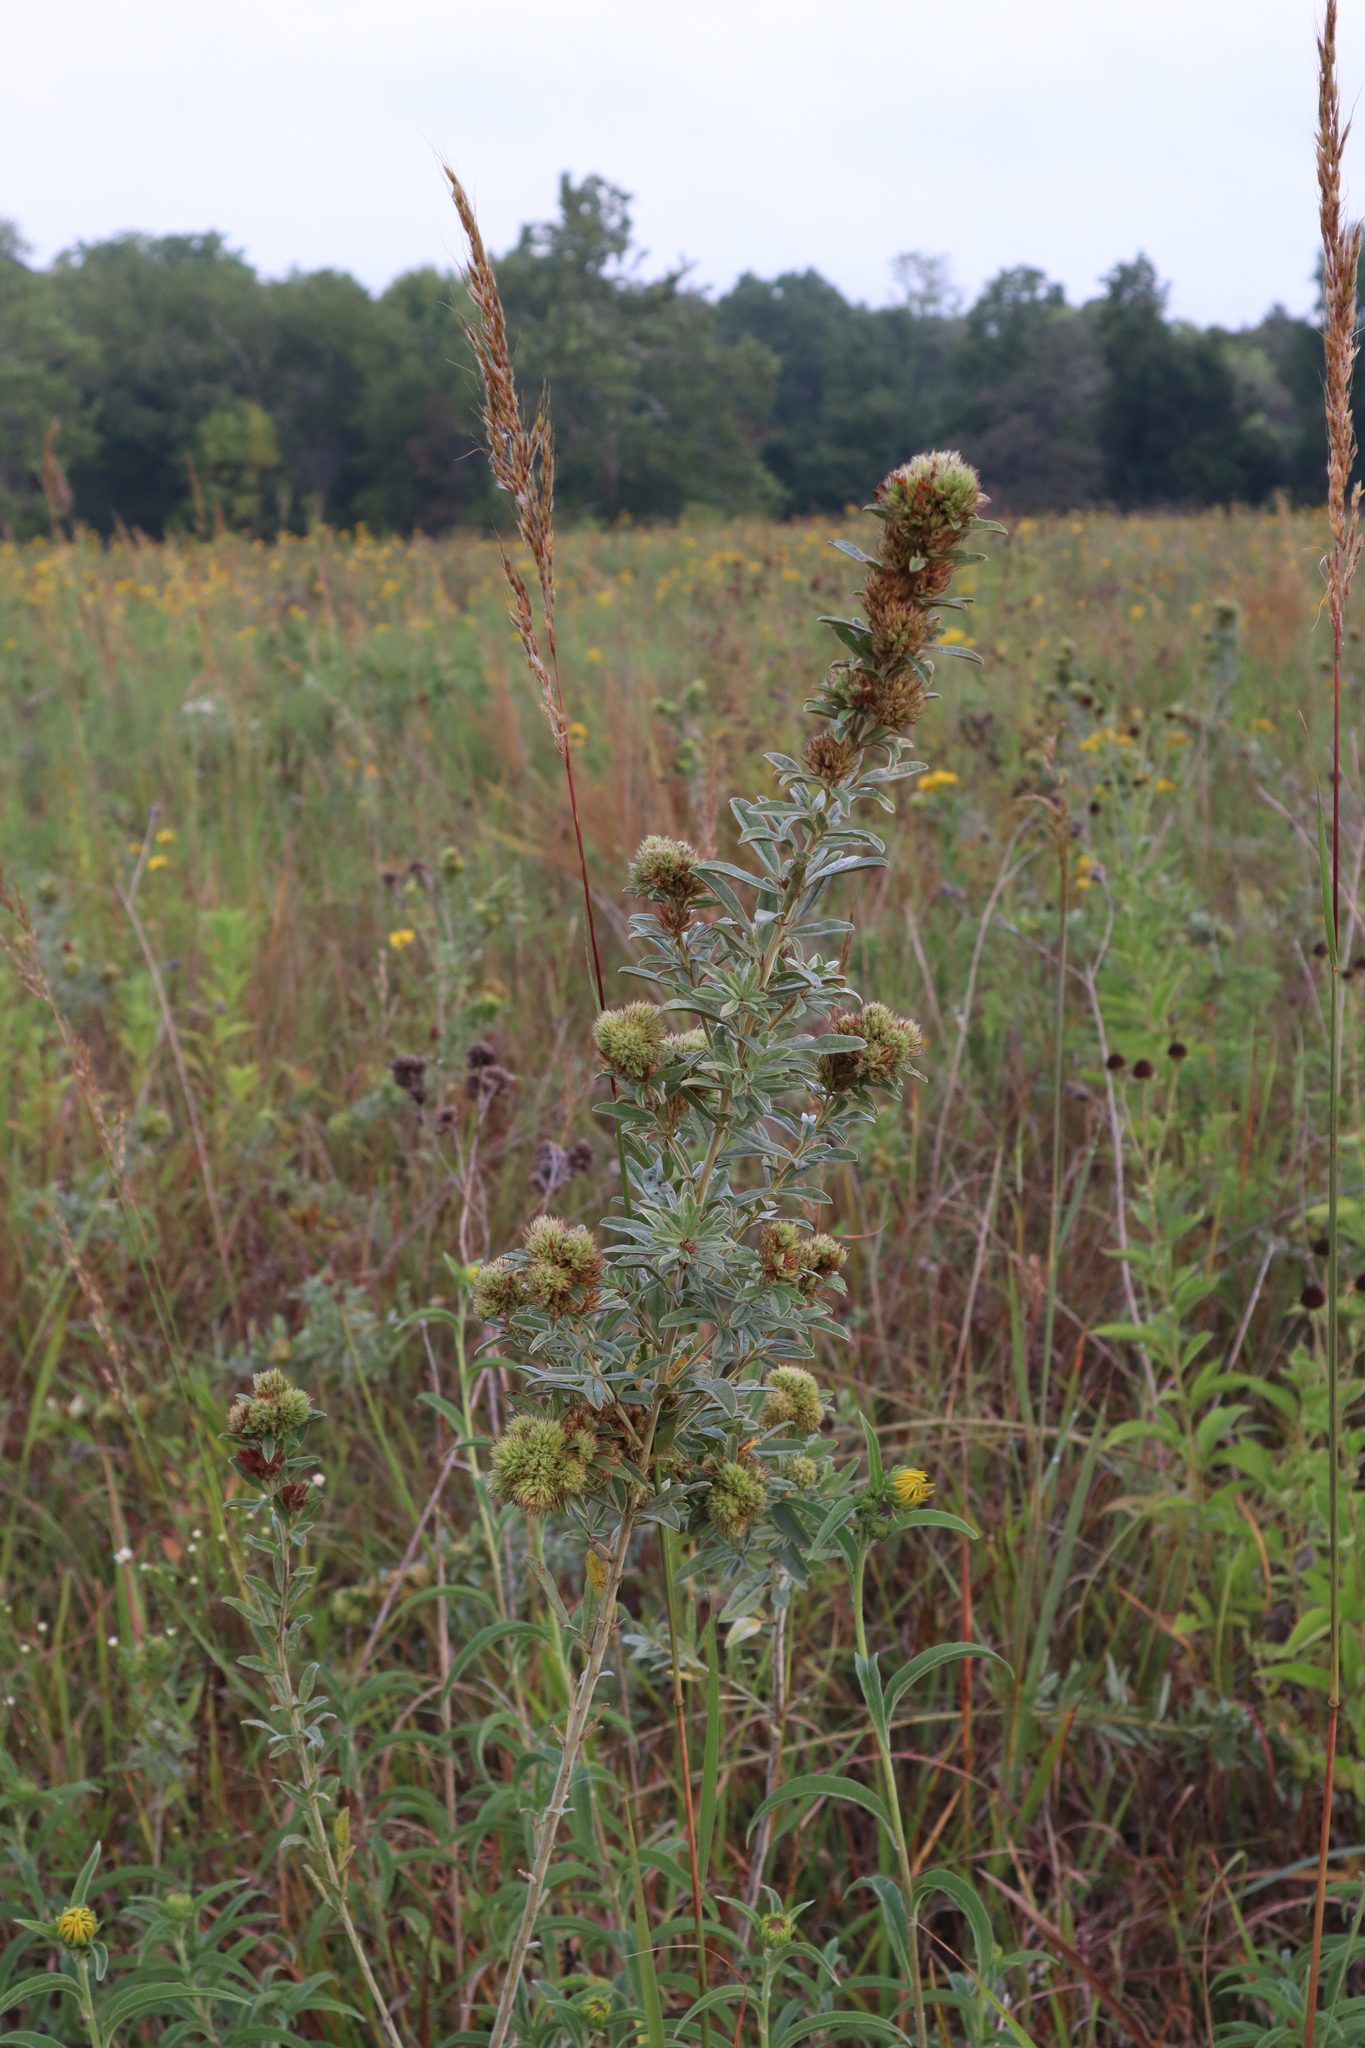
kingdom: Plantae
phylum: Tracheophyta
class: Magnoliopsida
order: Fabales
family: Fabaceae
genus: Lespedeza
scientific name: Lespedeza capitata
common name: Dusty clover
